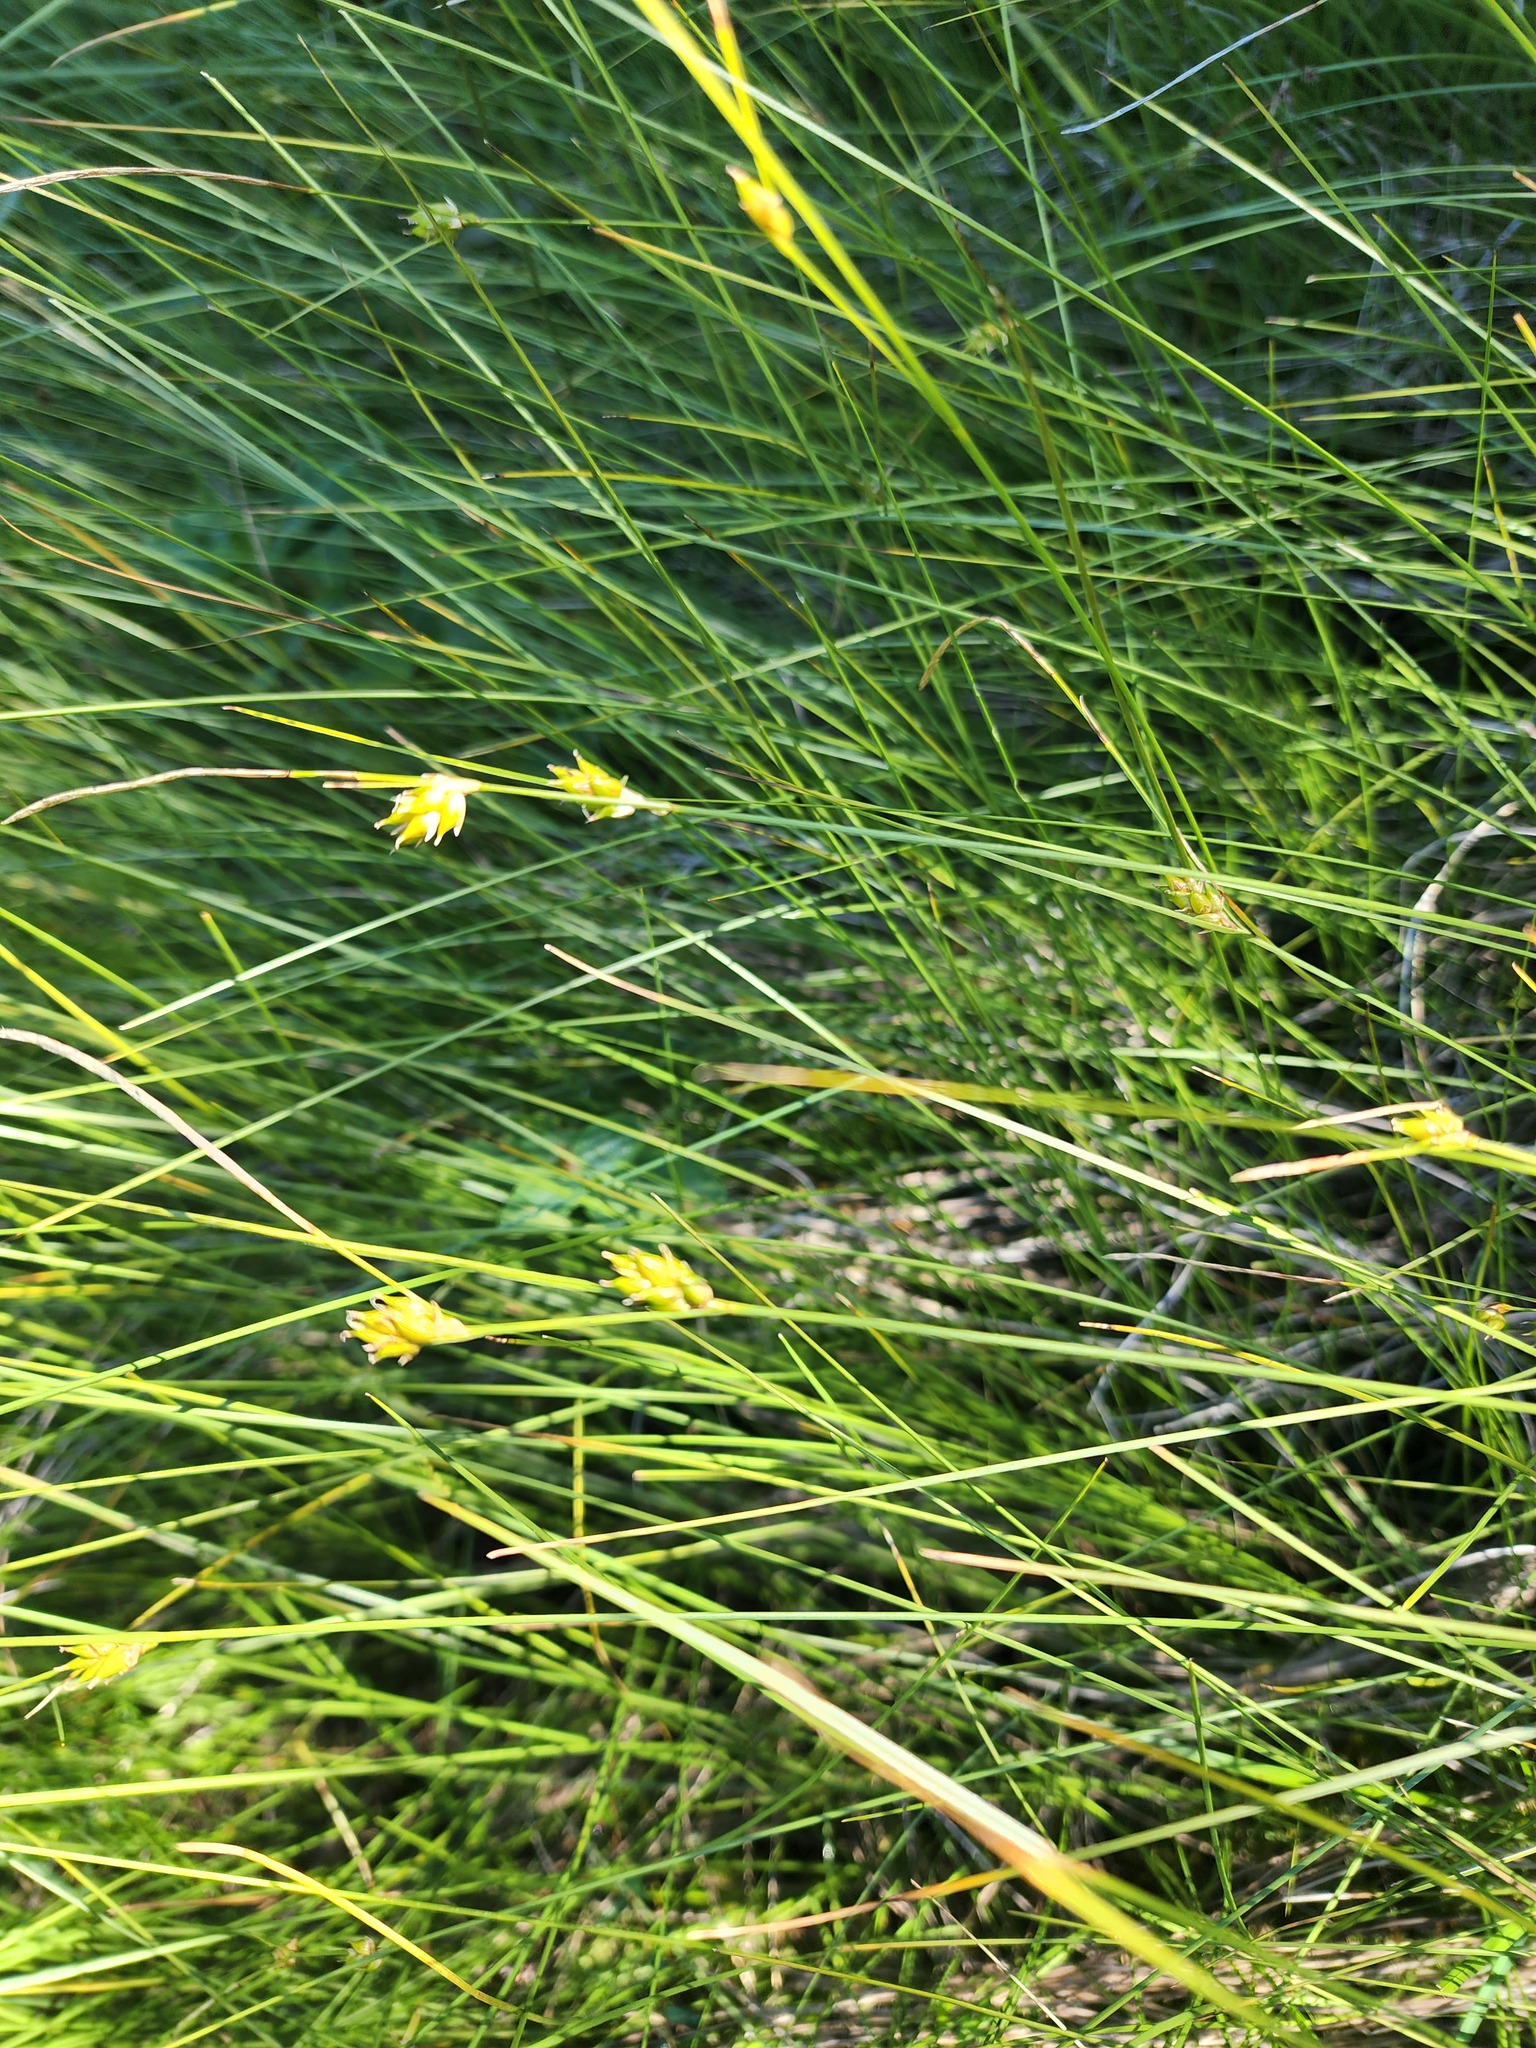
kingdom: Plantae
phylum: Tracheophyta
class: Liliopsida
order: Poales
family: Cyperaceae
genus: Carex
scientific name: Carex oligosperma
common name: Few-seed sedge
